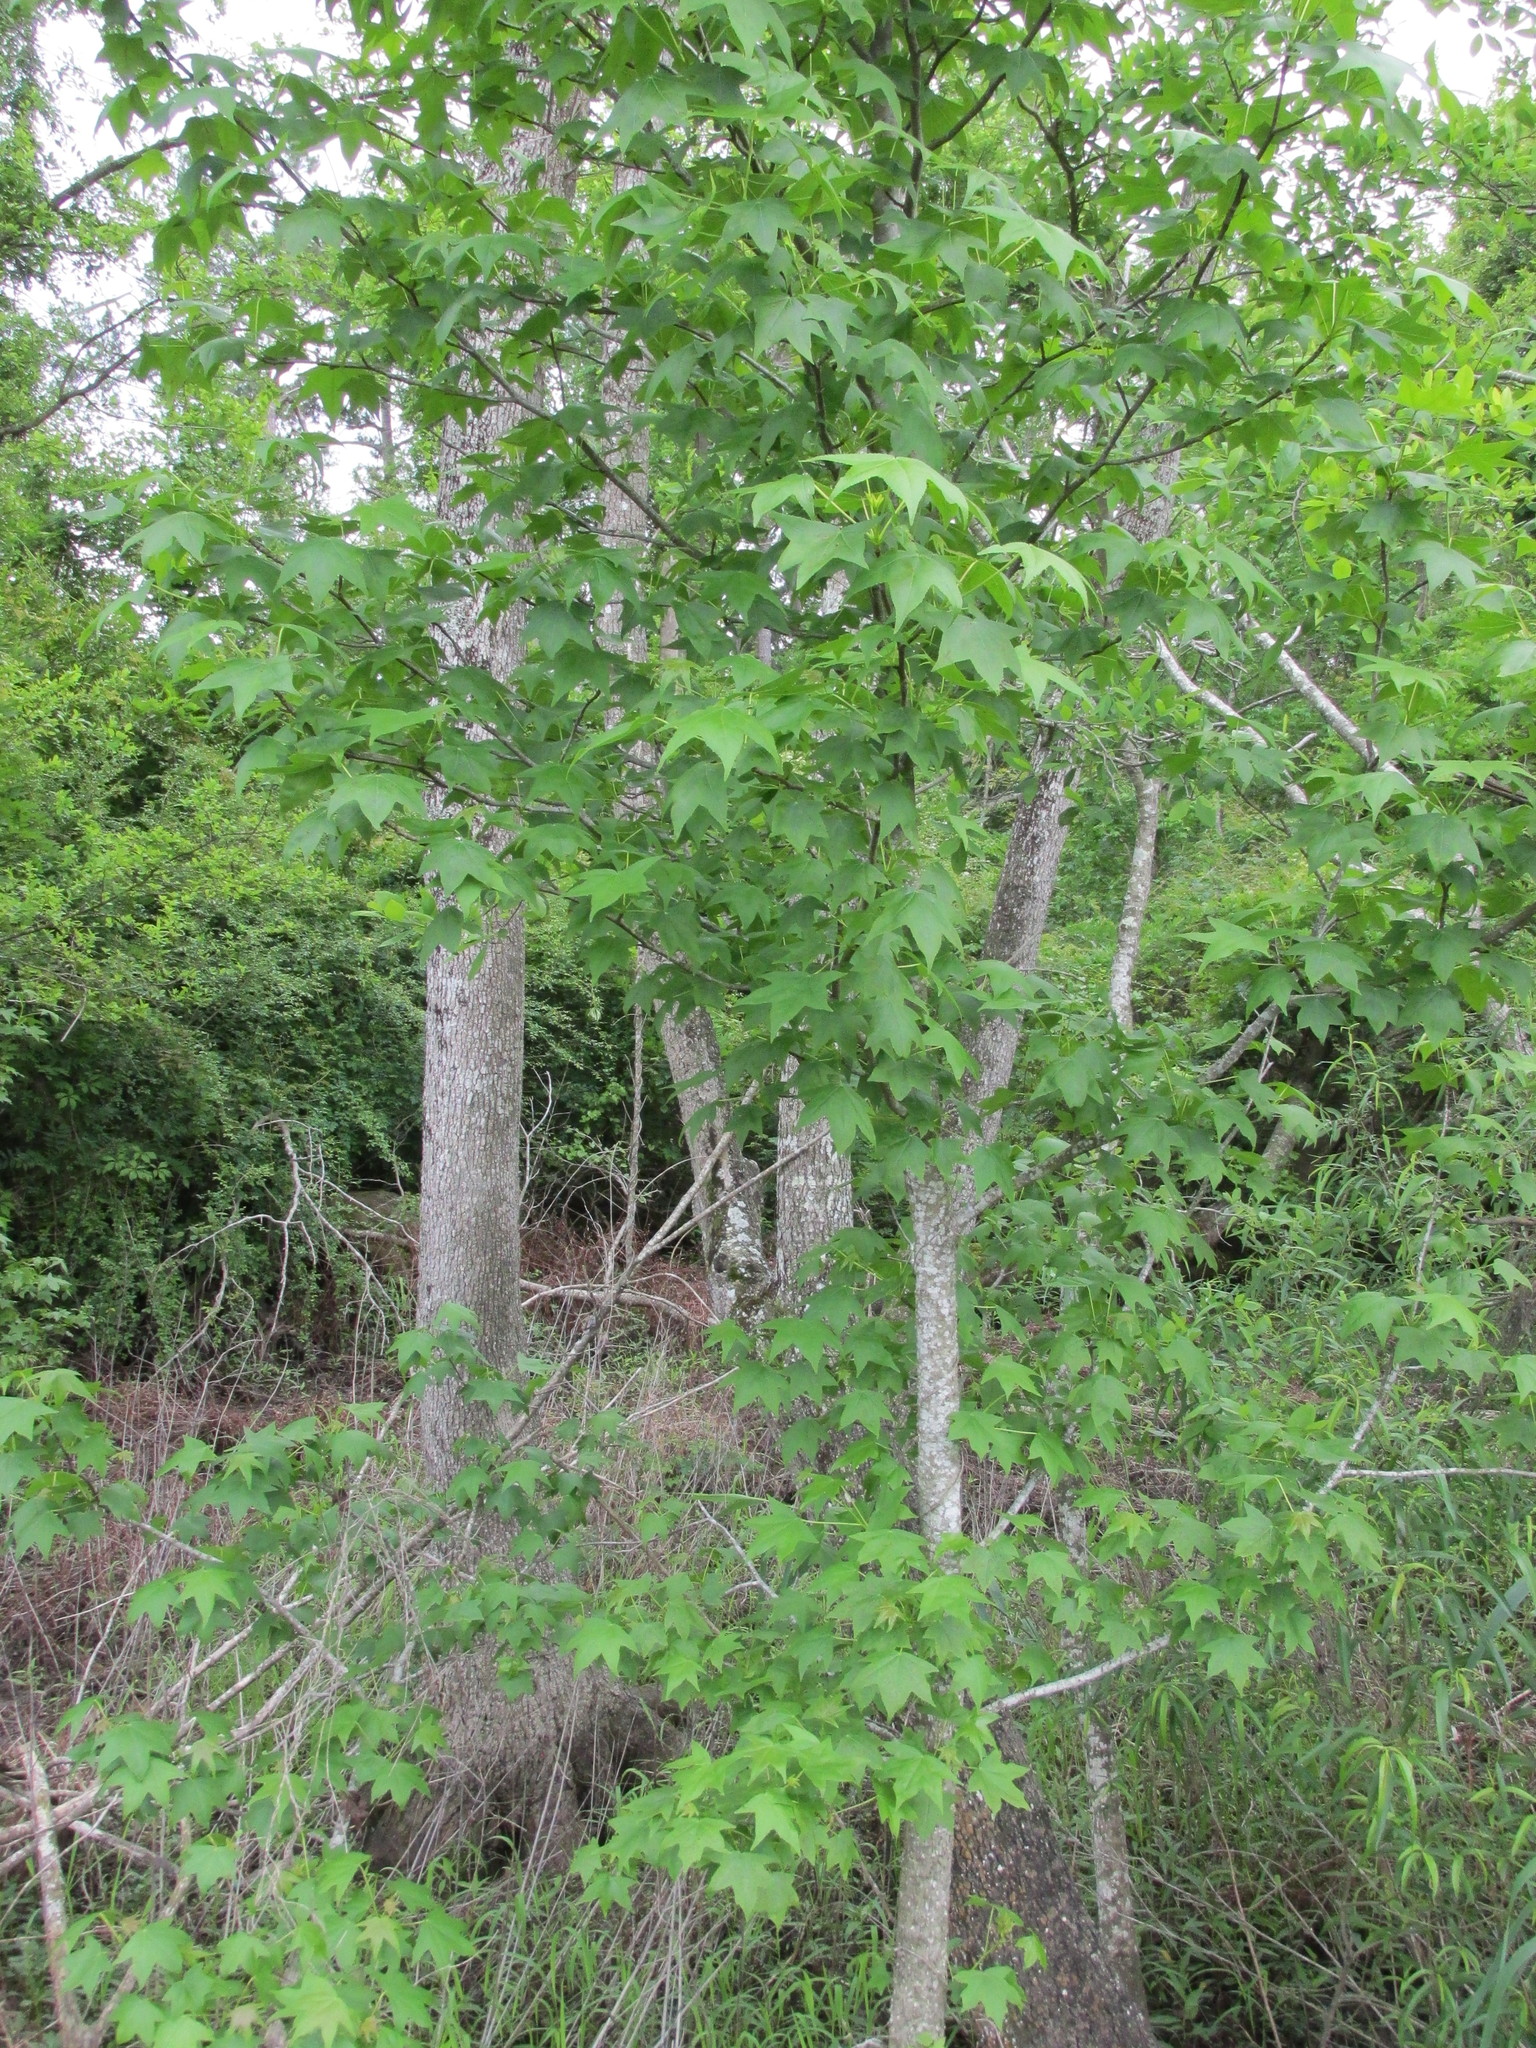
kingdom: Plantae
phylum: Tracheophyta
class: Magnoliopsida
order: Saxifragales
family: Altingiaceae
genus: Liquidambar
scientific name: Liquidambar styraciflua
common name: Sweet gum
